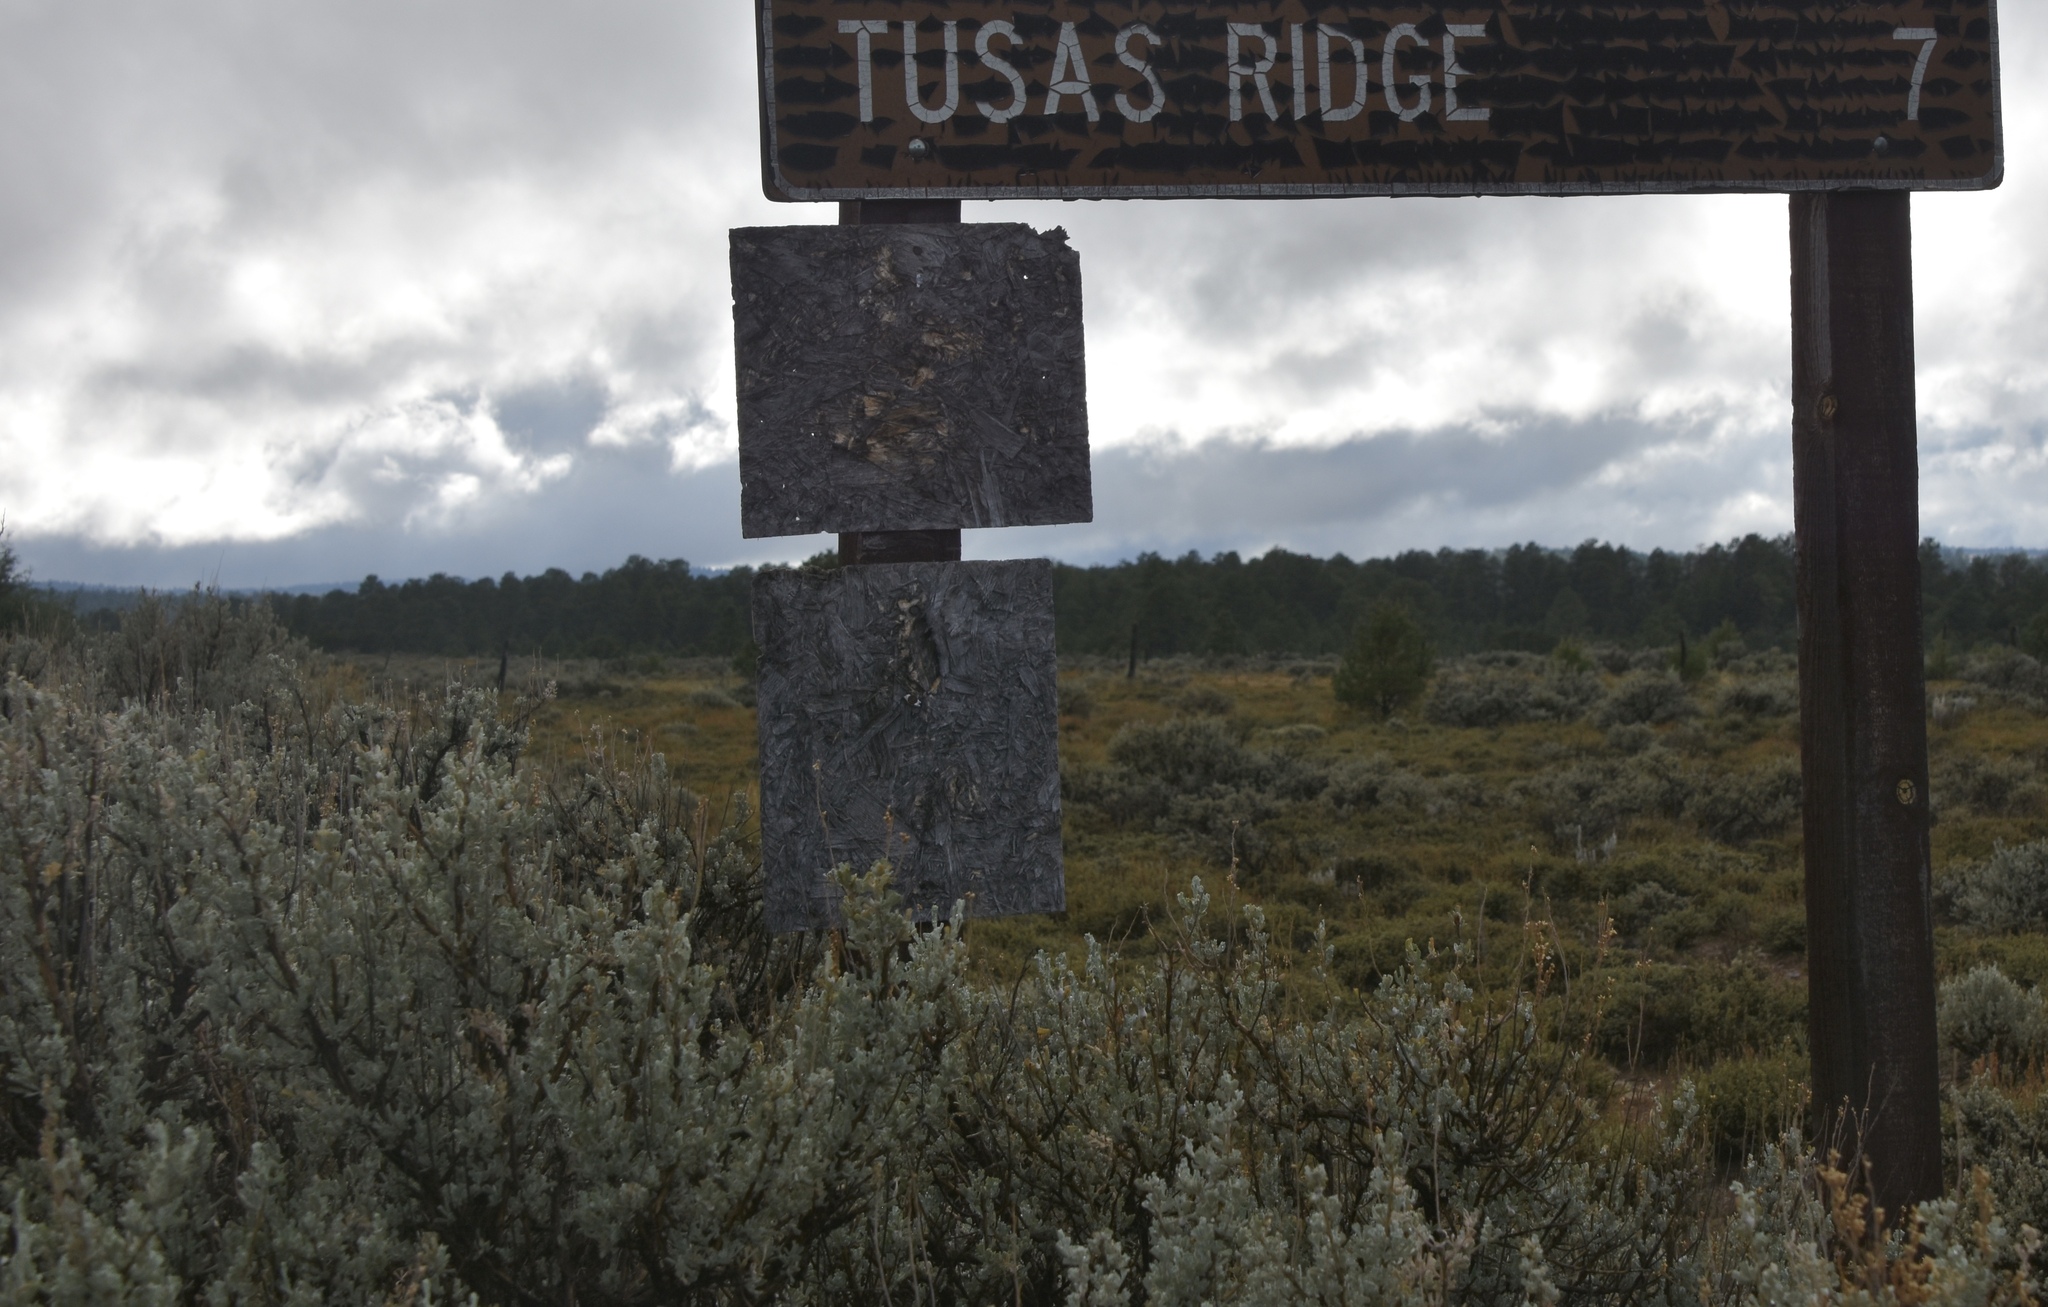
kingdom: Plantae
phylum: Tracheophyta
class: Magnoliopsida
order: Asterales
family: Asteraceae
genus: Artemisia
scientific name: Artemisia tridentata
